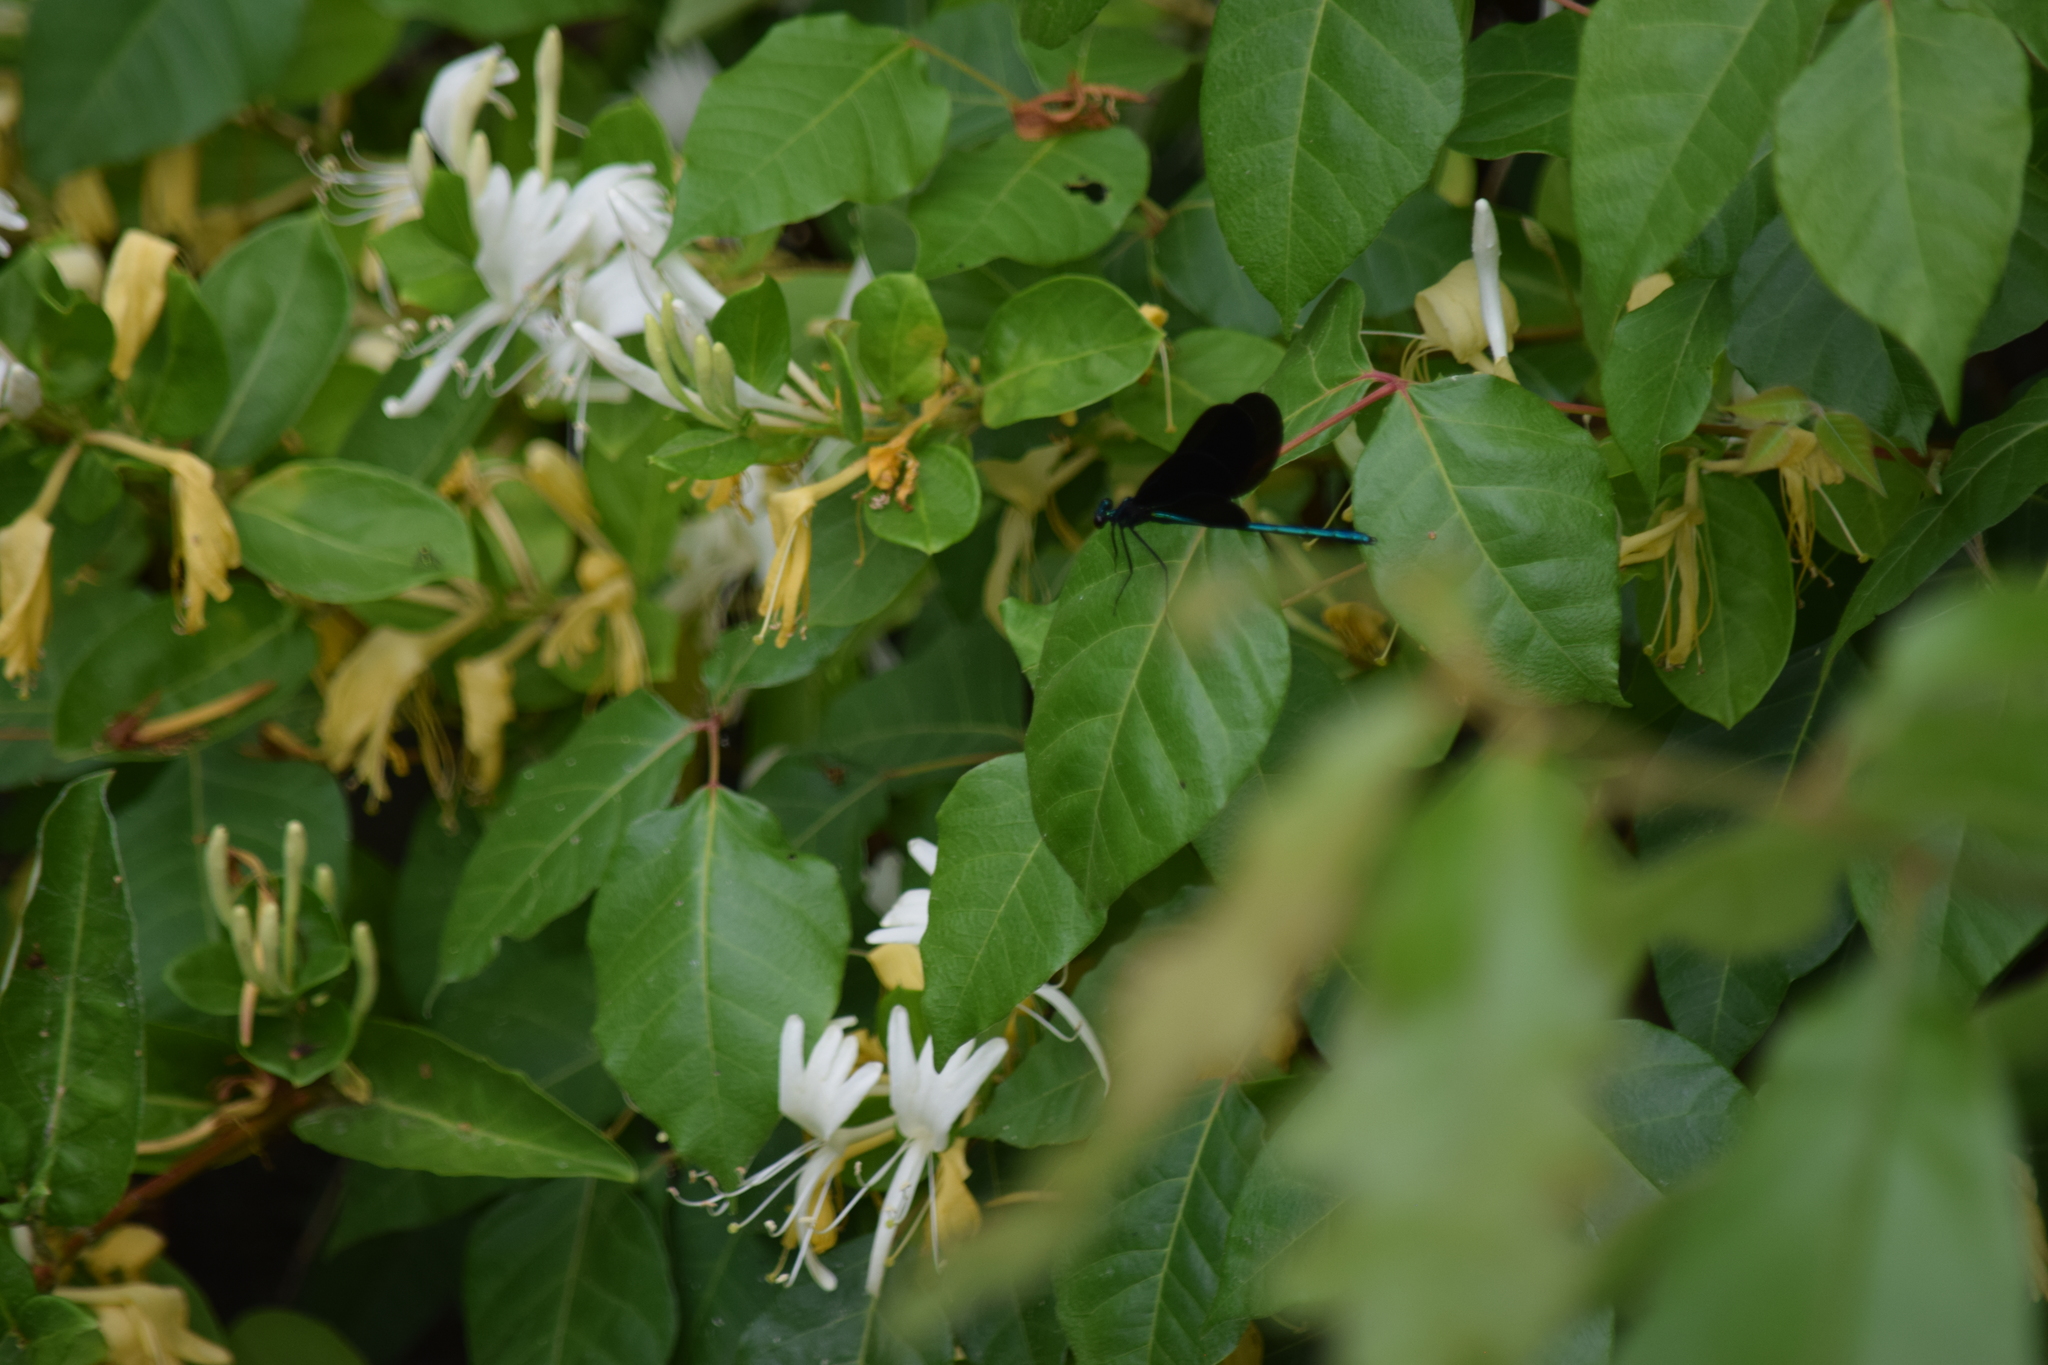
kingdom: Animalia
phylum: Arthropoda
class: Insecta
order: Odonata
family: Calopterygidae
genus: Calopteryx
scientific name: Calopteryx maculata
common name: Ebony jewelwing
